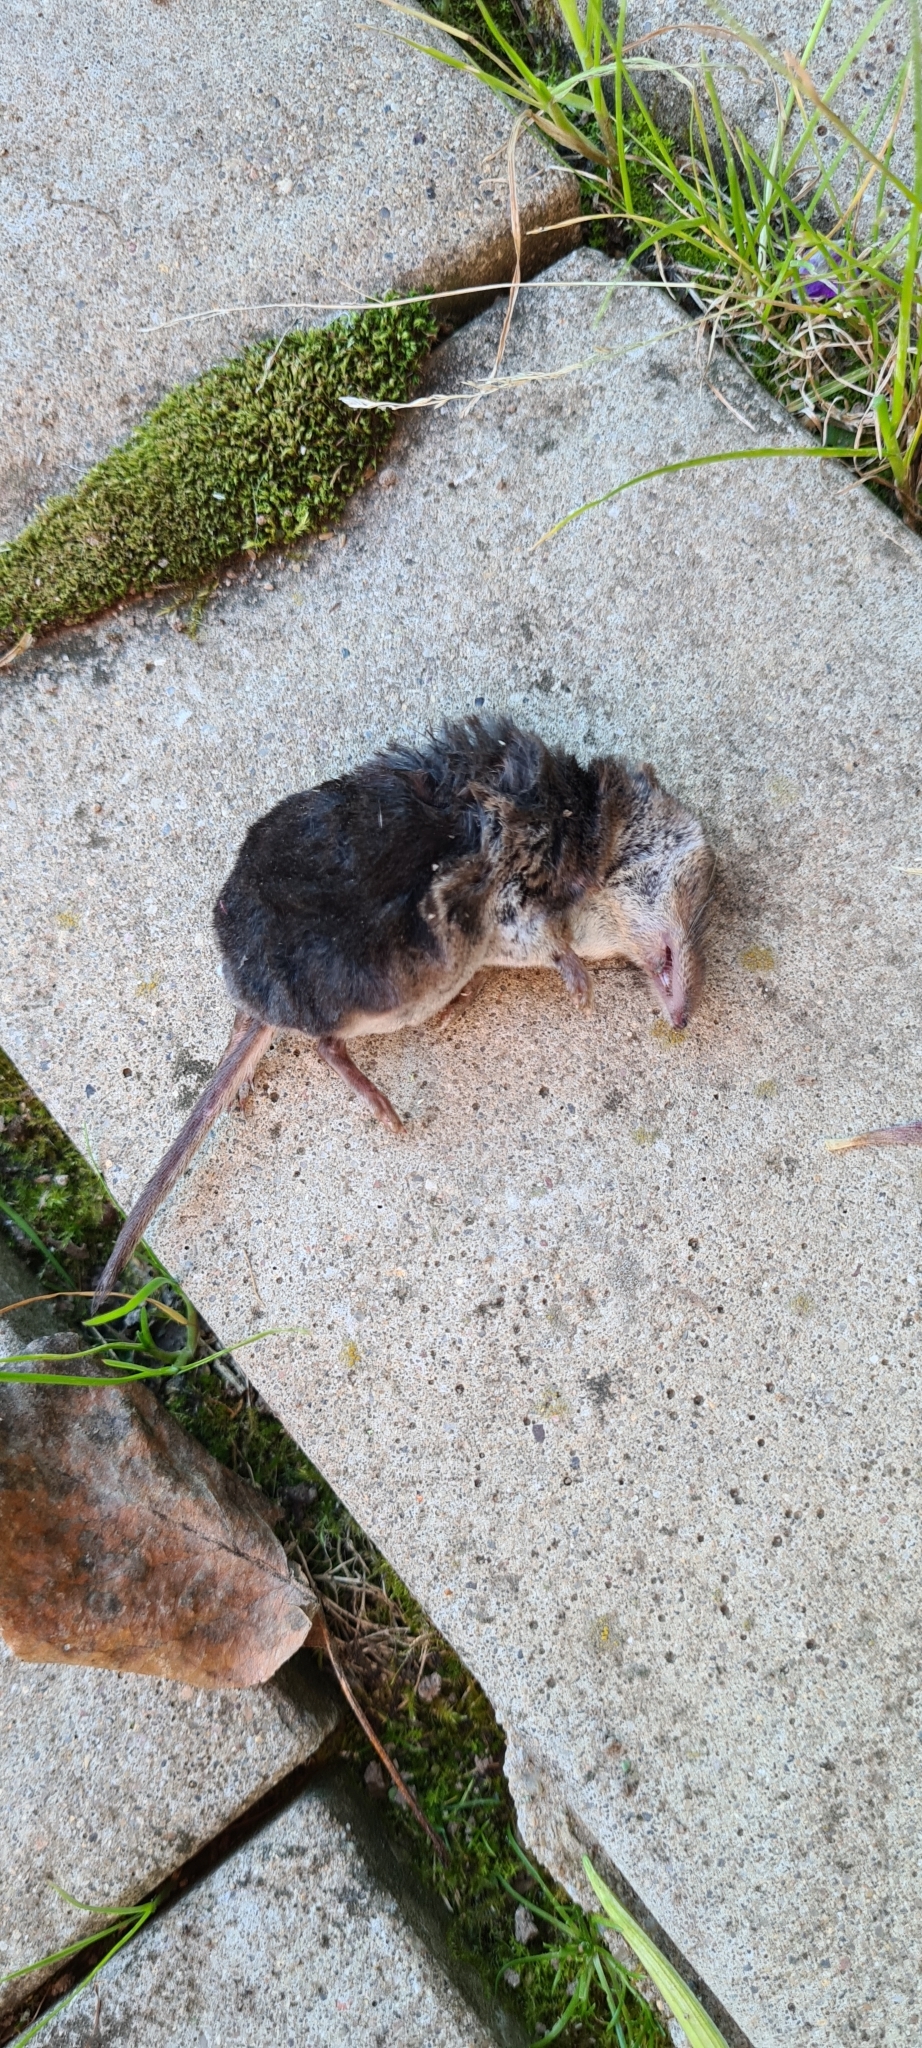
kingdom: Animalia
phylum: Chordata
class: Mammalia
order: Soricomorpha
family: Soricidae
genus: Sorex
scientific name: Sorex araneus
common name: Common shrew
